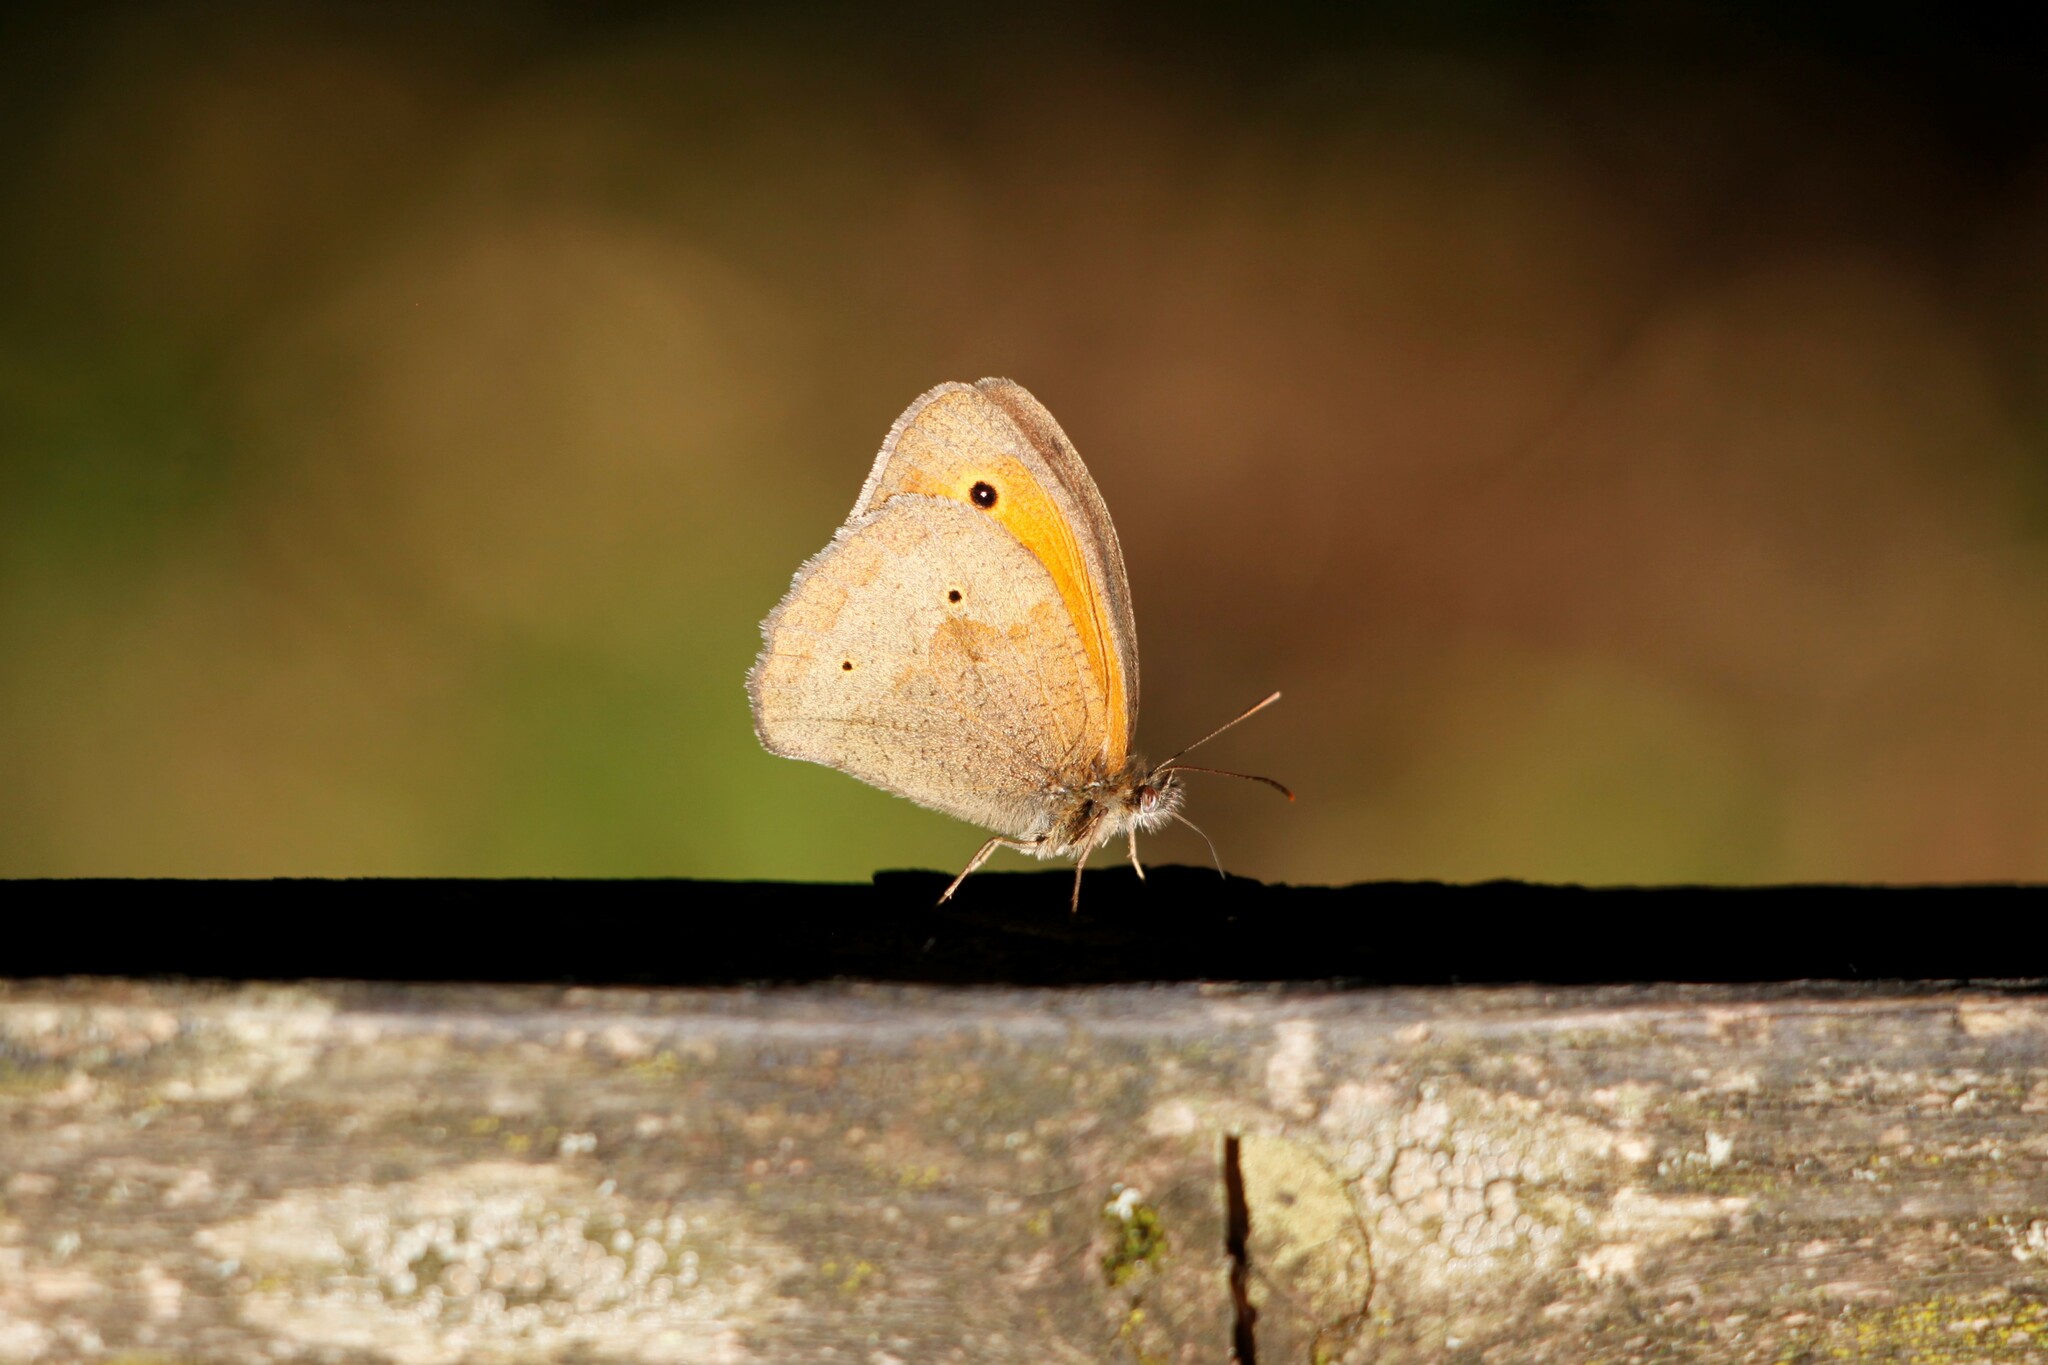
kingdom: Animalia
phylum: Arthropoda
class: Insecta
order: Lepidoptera
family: Nymphalidae
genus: Maniola
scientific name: Maniola jurtina
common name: Meadow brown
